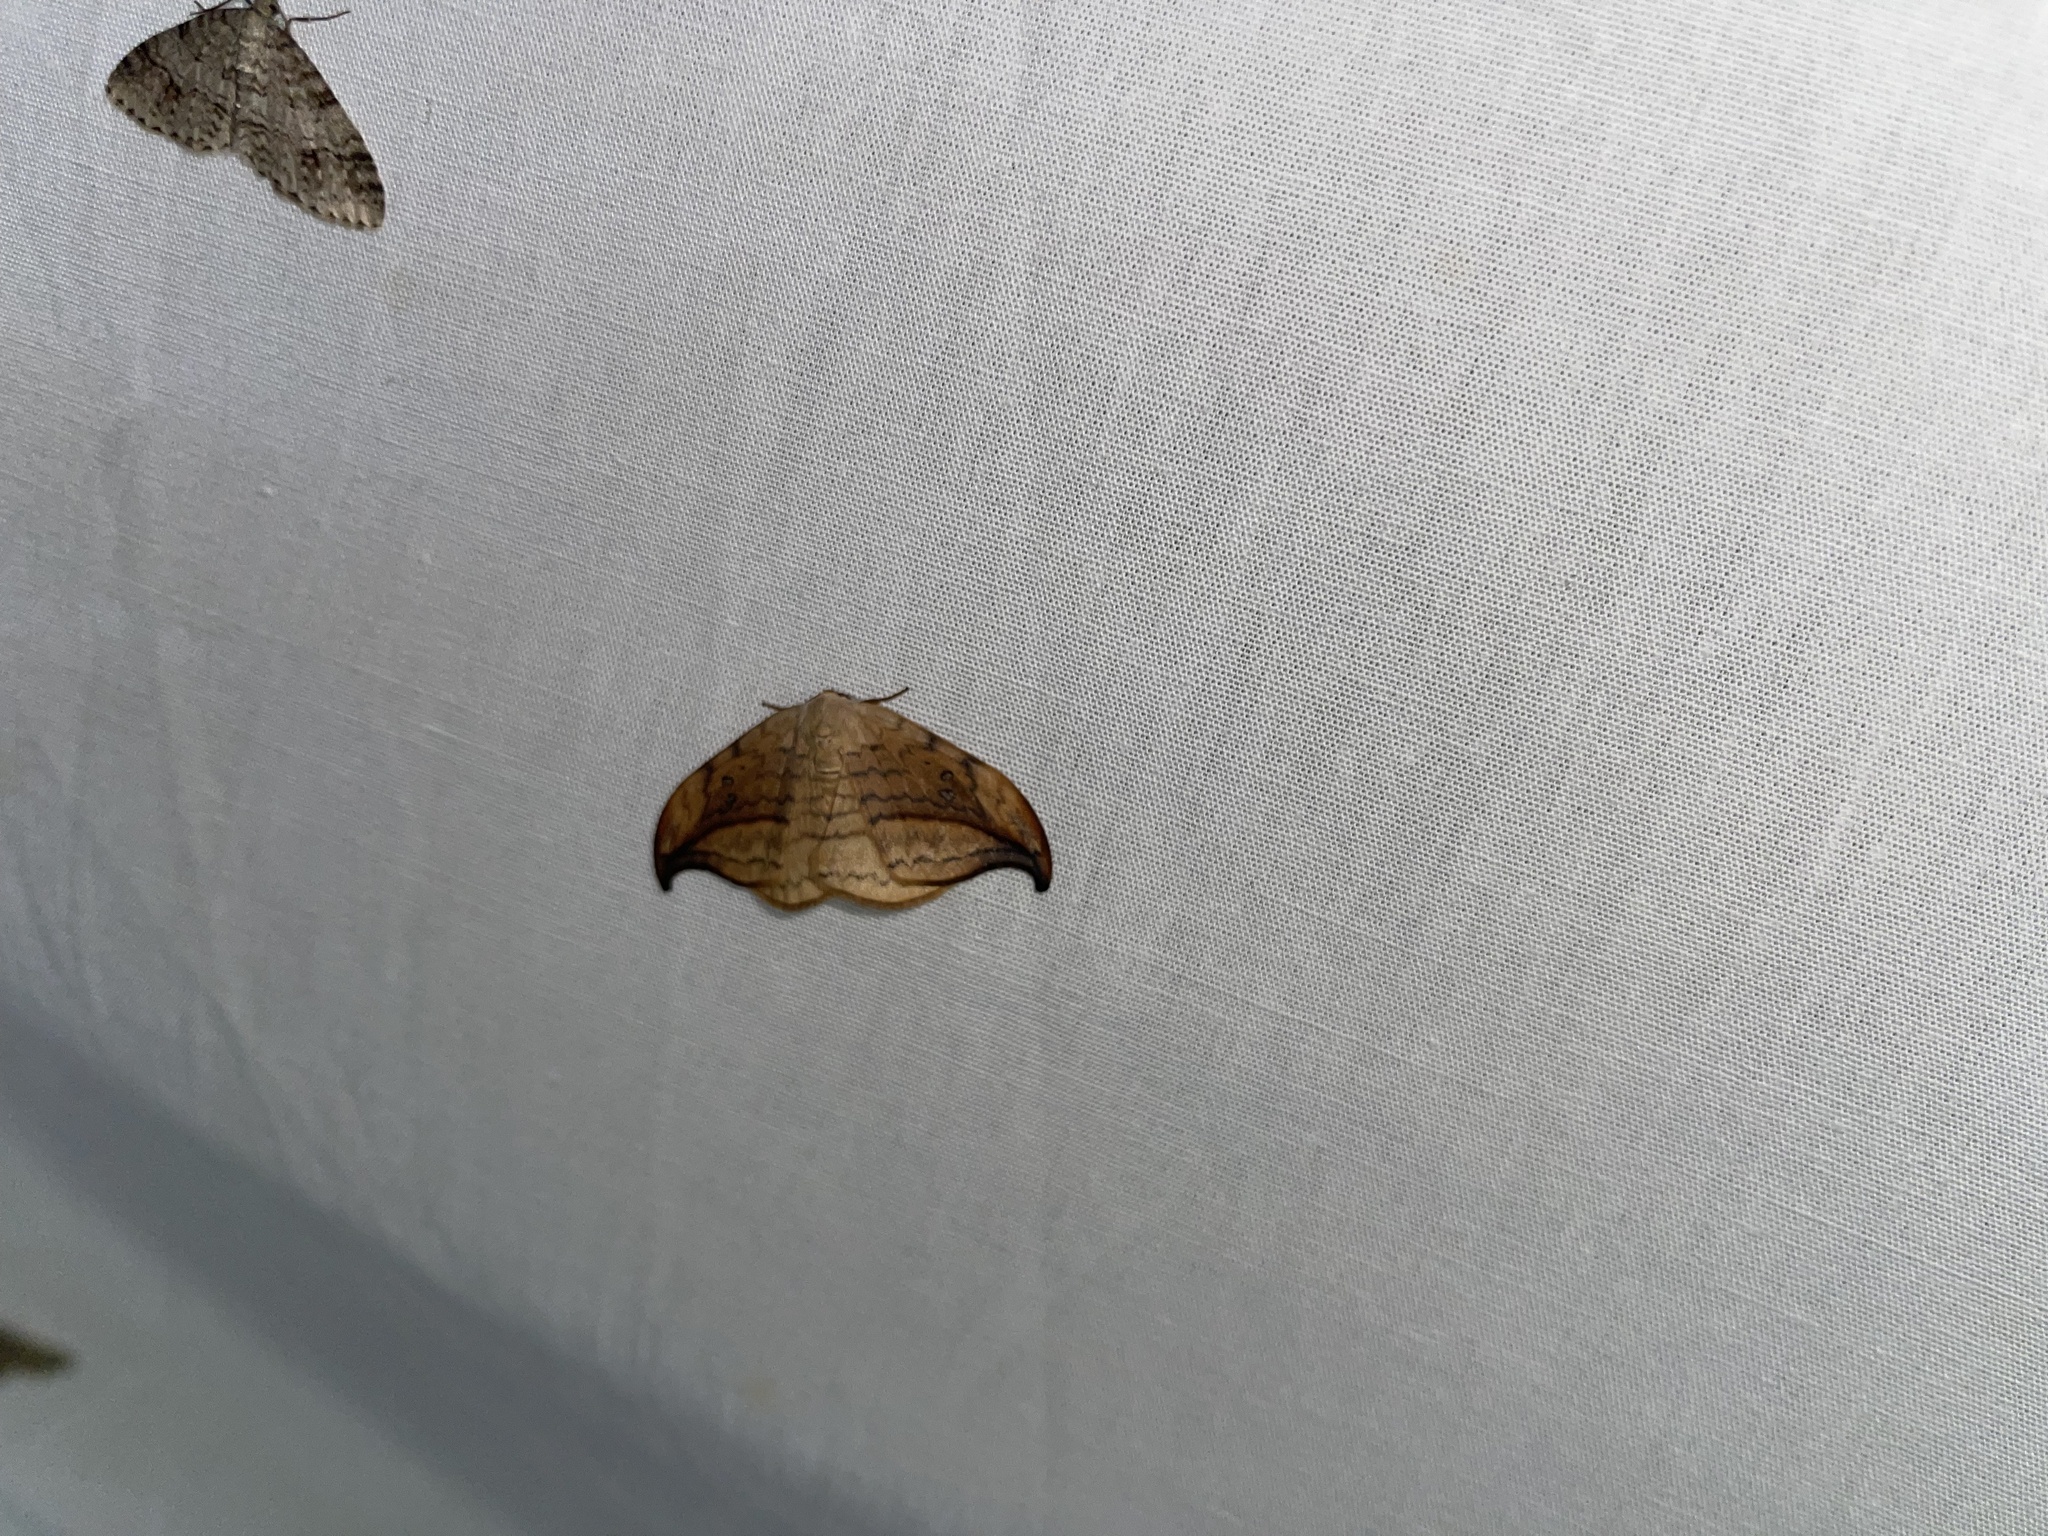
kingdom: Animalia
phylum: Arthropoda
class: Insecta
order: Lepidoptera
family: Drepanidae
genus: Drepana
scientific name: Drepana arcuata
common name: Arched hooktip moth
